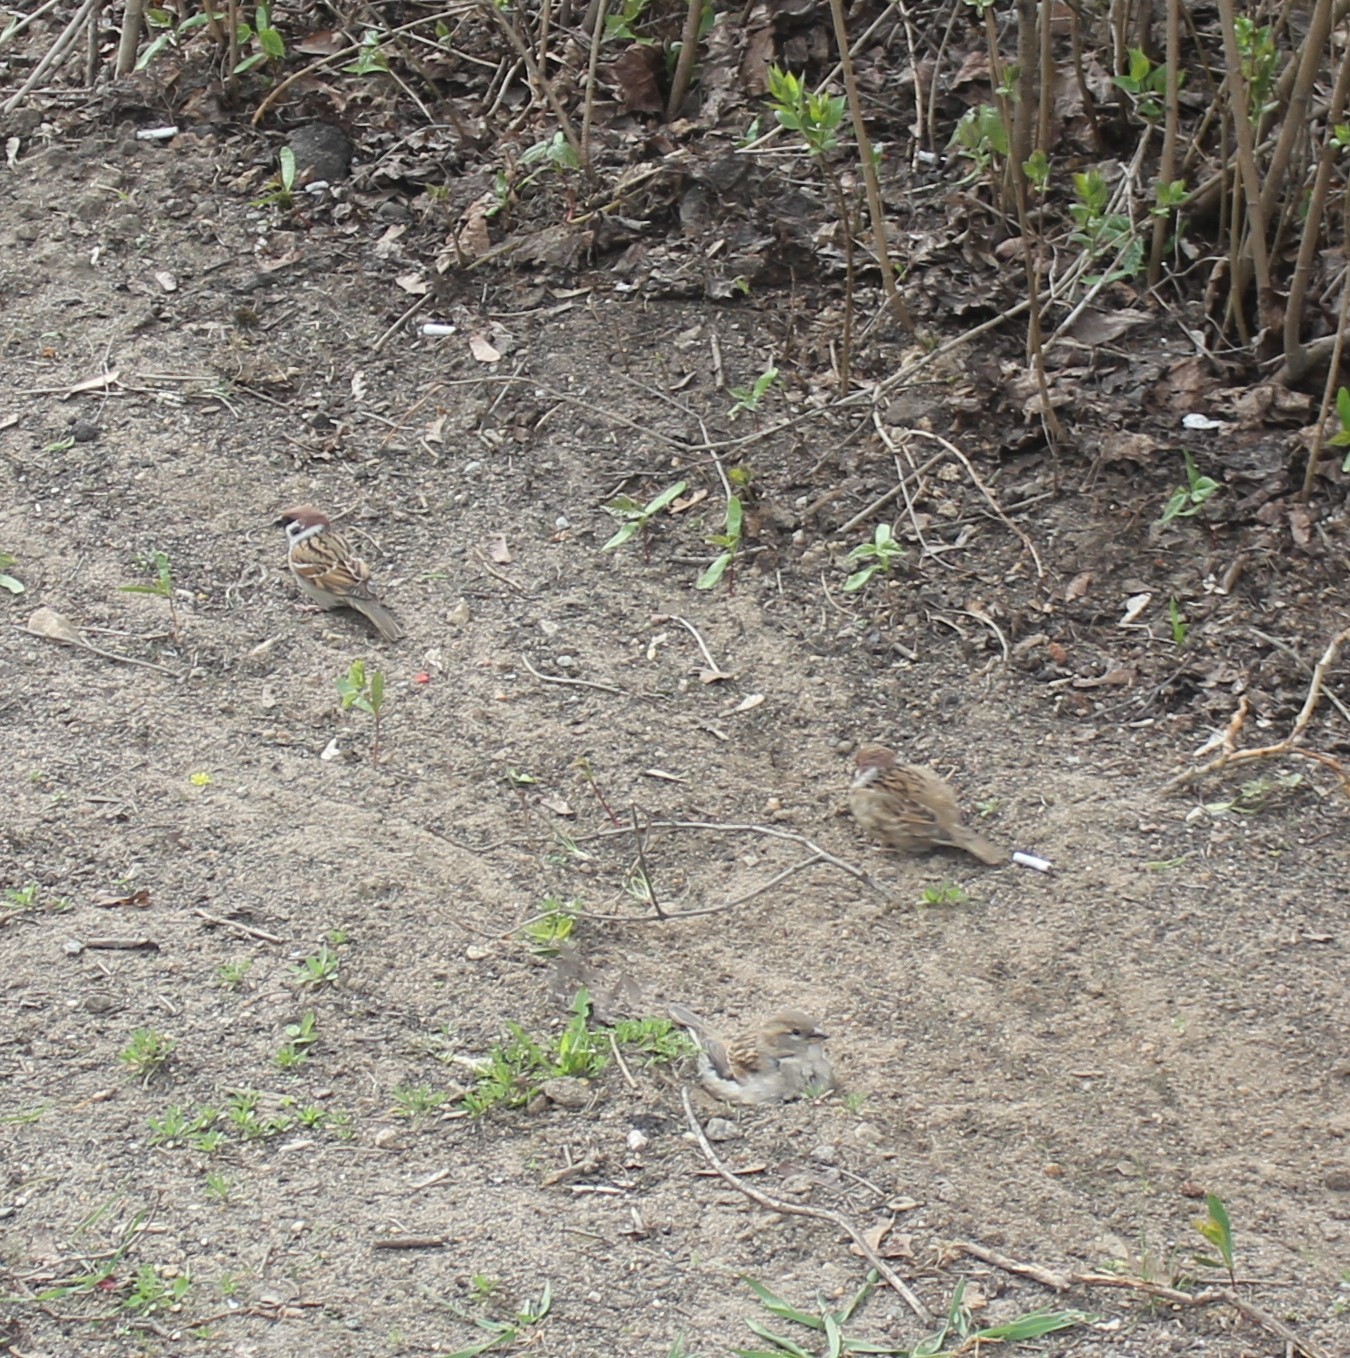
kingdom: Animalia
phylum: Chordata
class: Aves
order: Passeriformes
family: Passeridae
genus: Passer
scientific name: Passer montanus
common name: Eurasian tree sparrow
